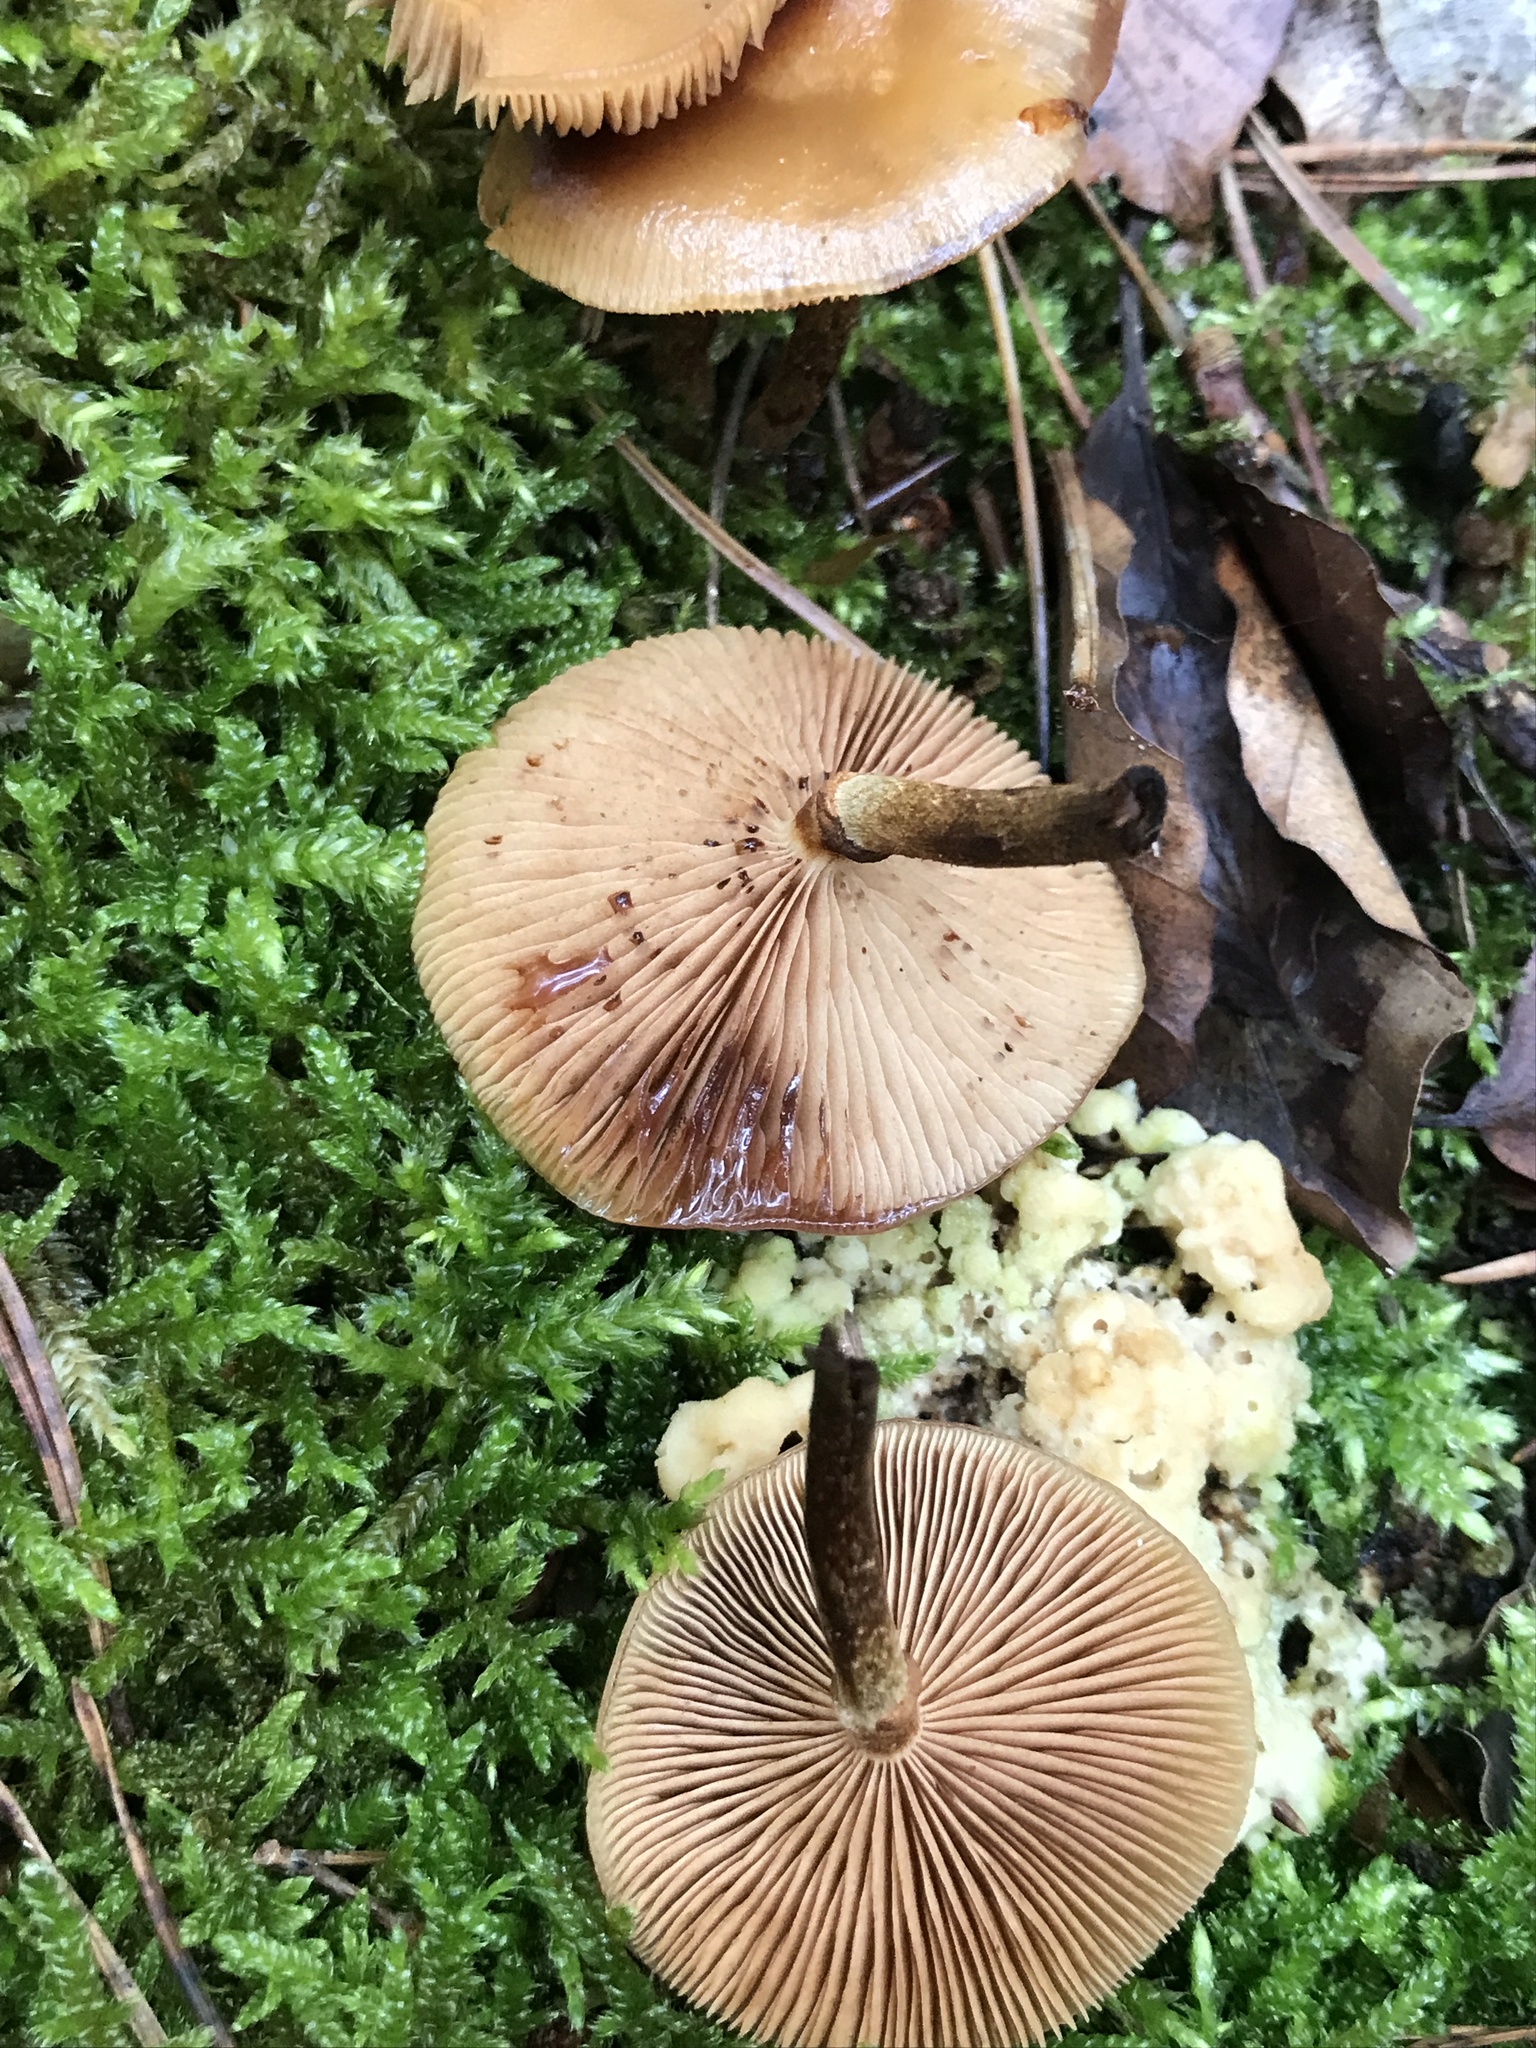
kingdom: Fungi
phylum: Basidiomycota
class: Agaricomycetes
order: Agaricales
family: Strophariaceae
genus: Kuehneromyces
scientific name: Kuehneromyces mutabilis
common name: Sheathed woodtuft
